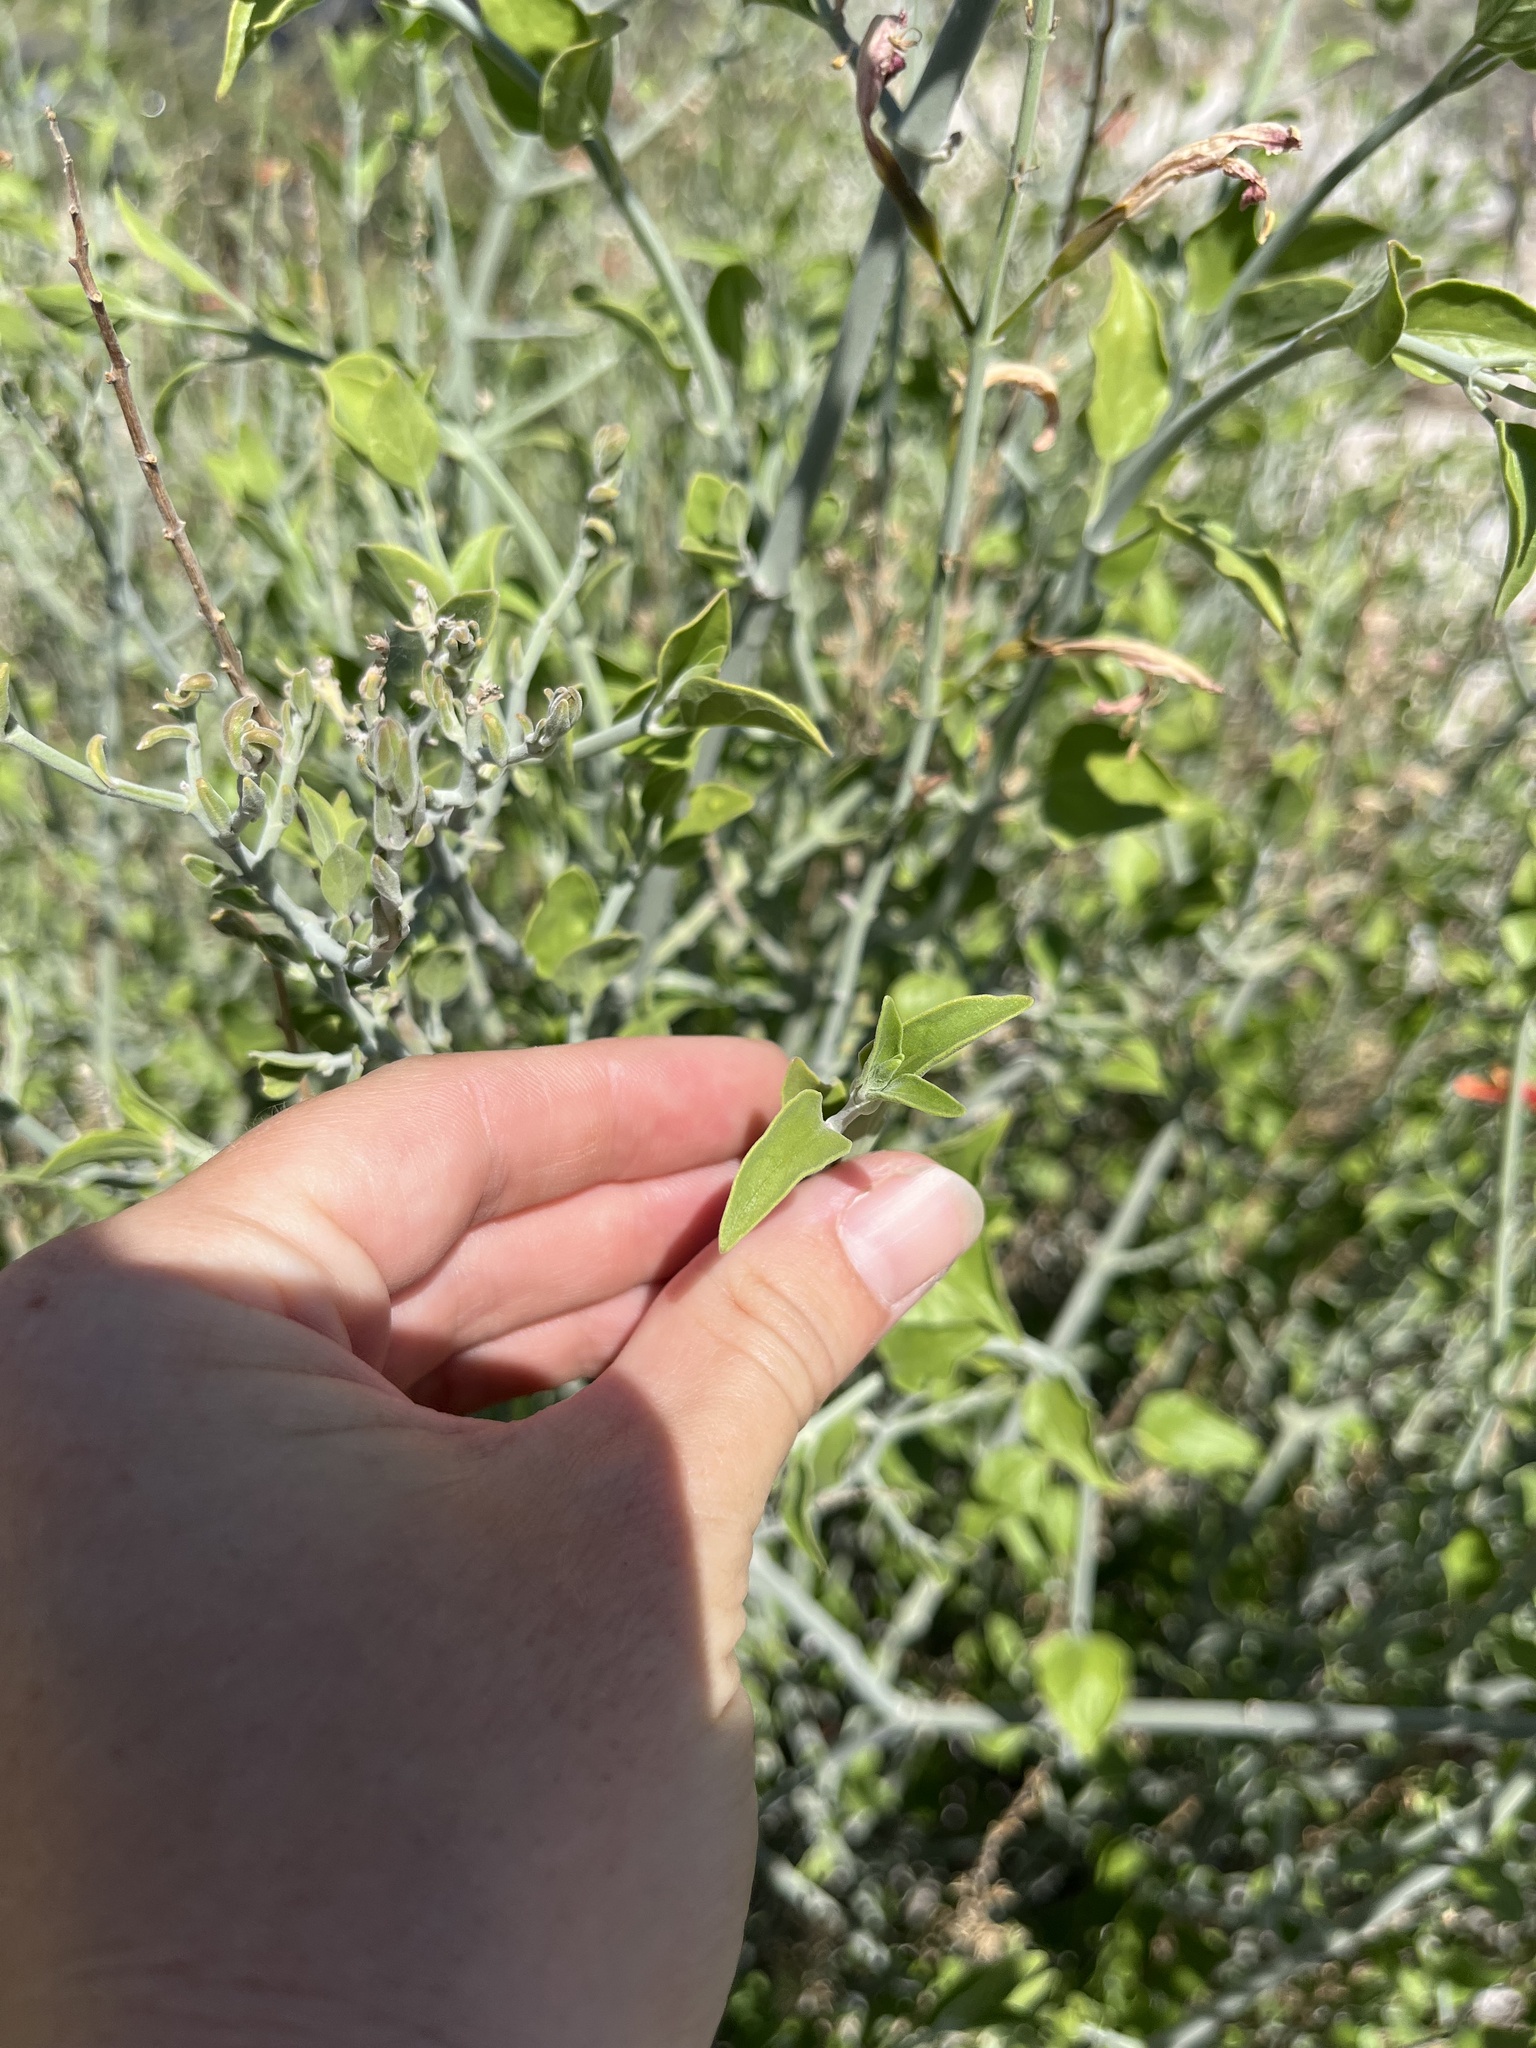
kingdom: Plantae
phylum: Tracheophyta
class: Magnoliopsida
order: Lamiales
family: Acanthaceae
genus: Justicia
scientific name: Justicia californica
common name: Chuparosa-honeysuckle
